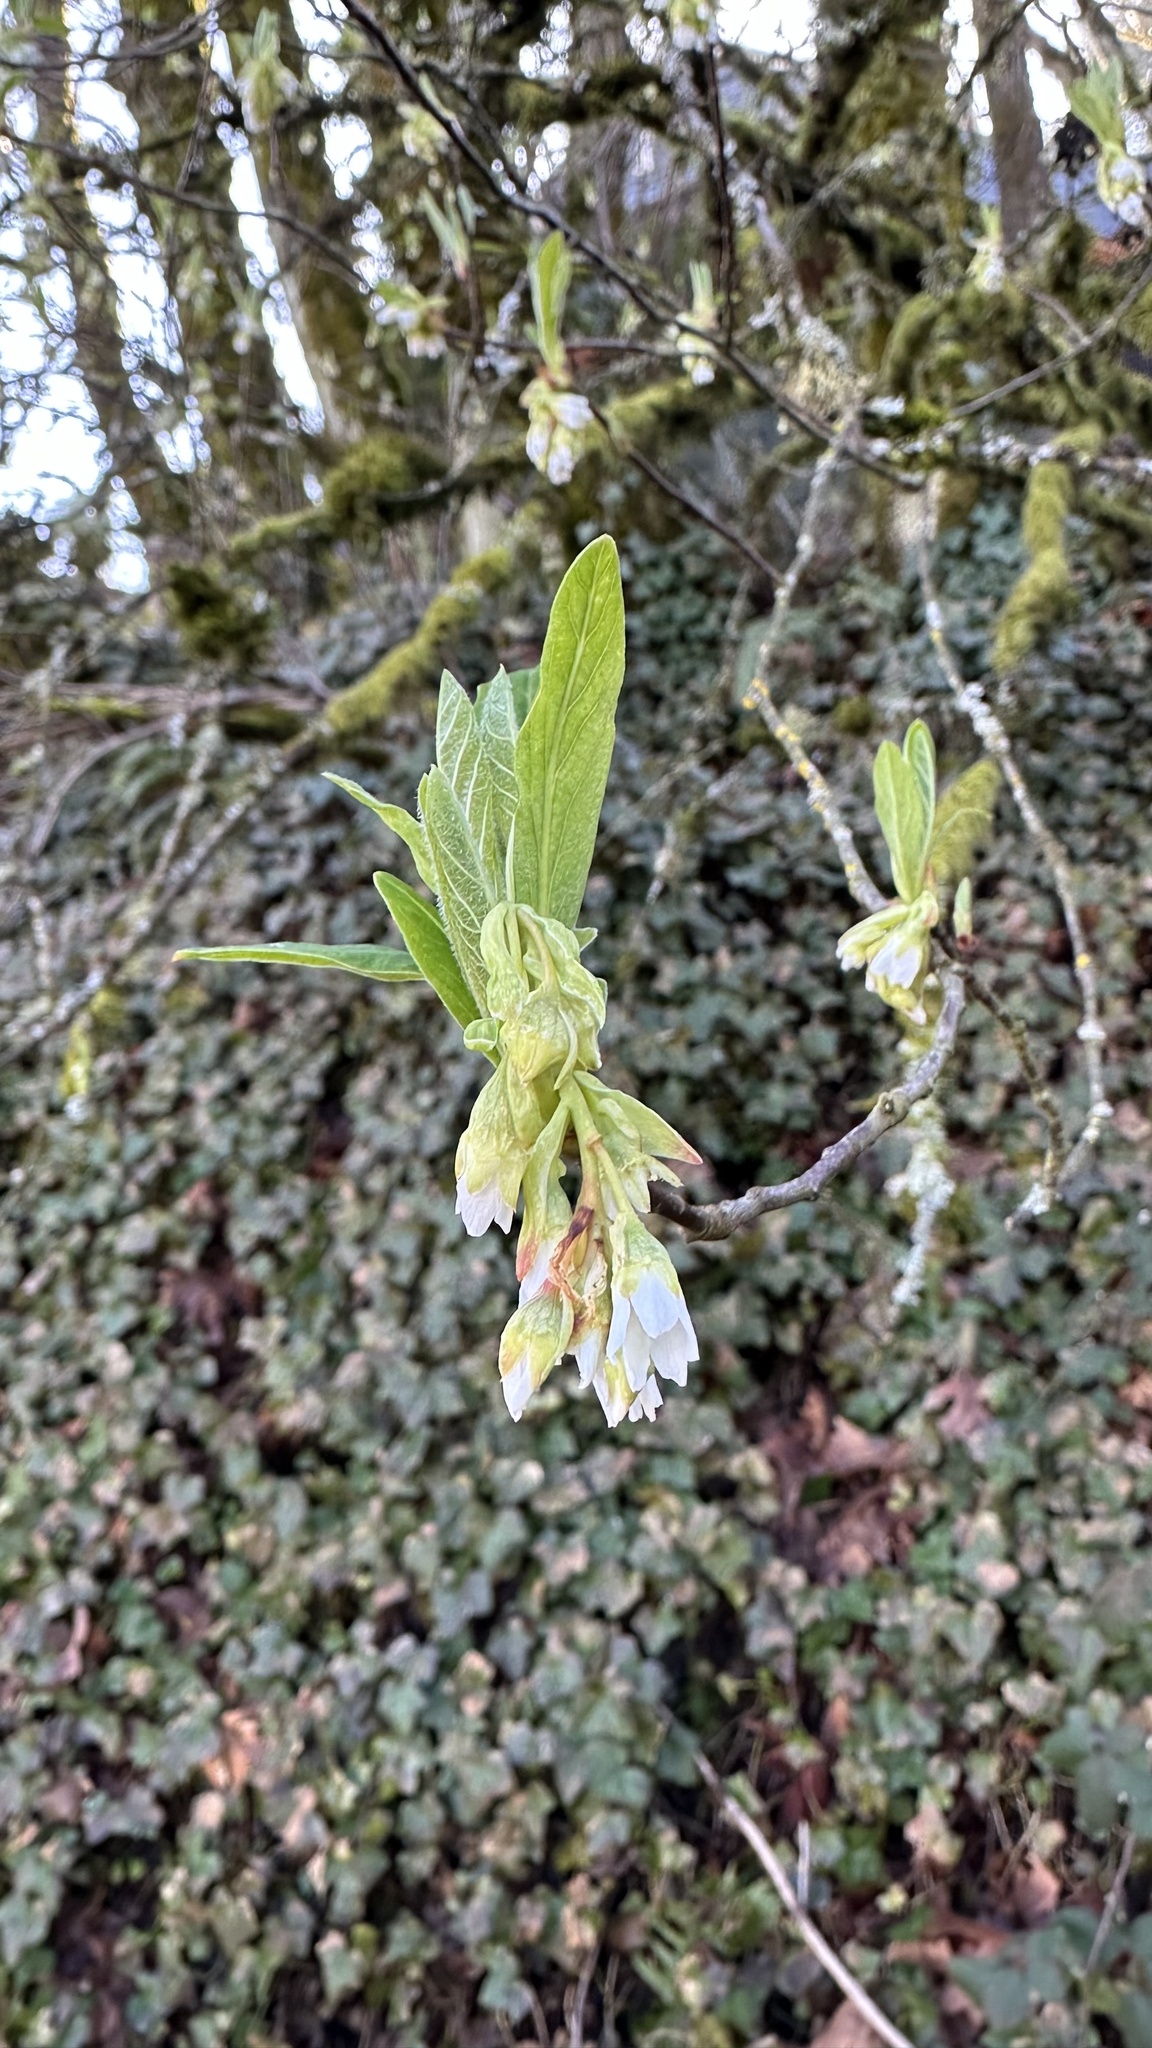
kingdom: Plantae
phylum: Tracheophyta
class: Magnoliopsida
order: Rosales
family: Rosaceae
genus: Oemleria
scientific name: Oemleria cerasiformis
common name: Osoberry
